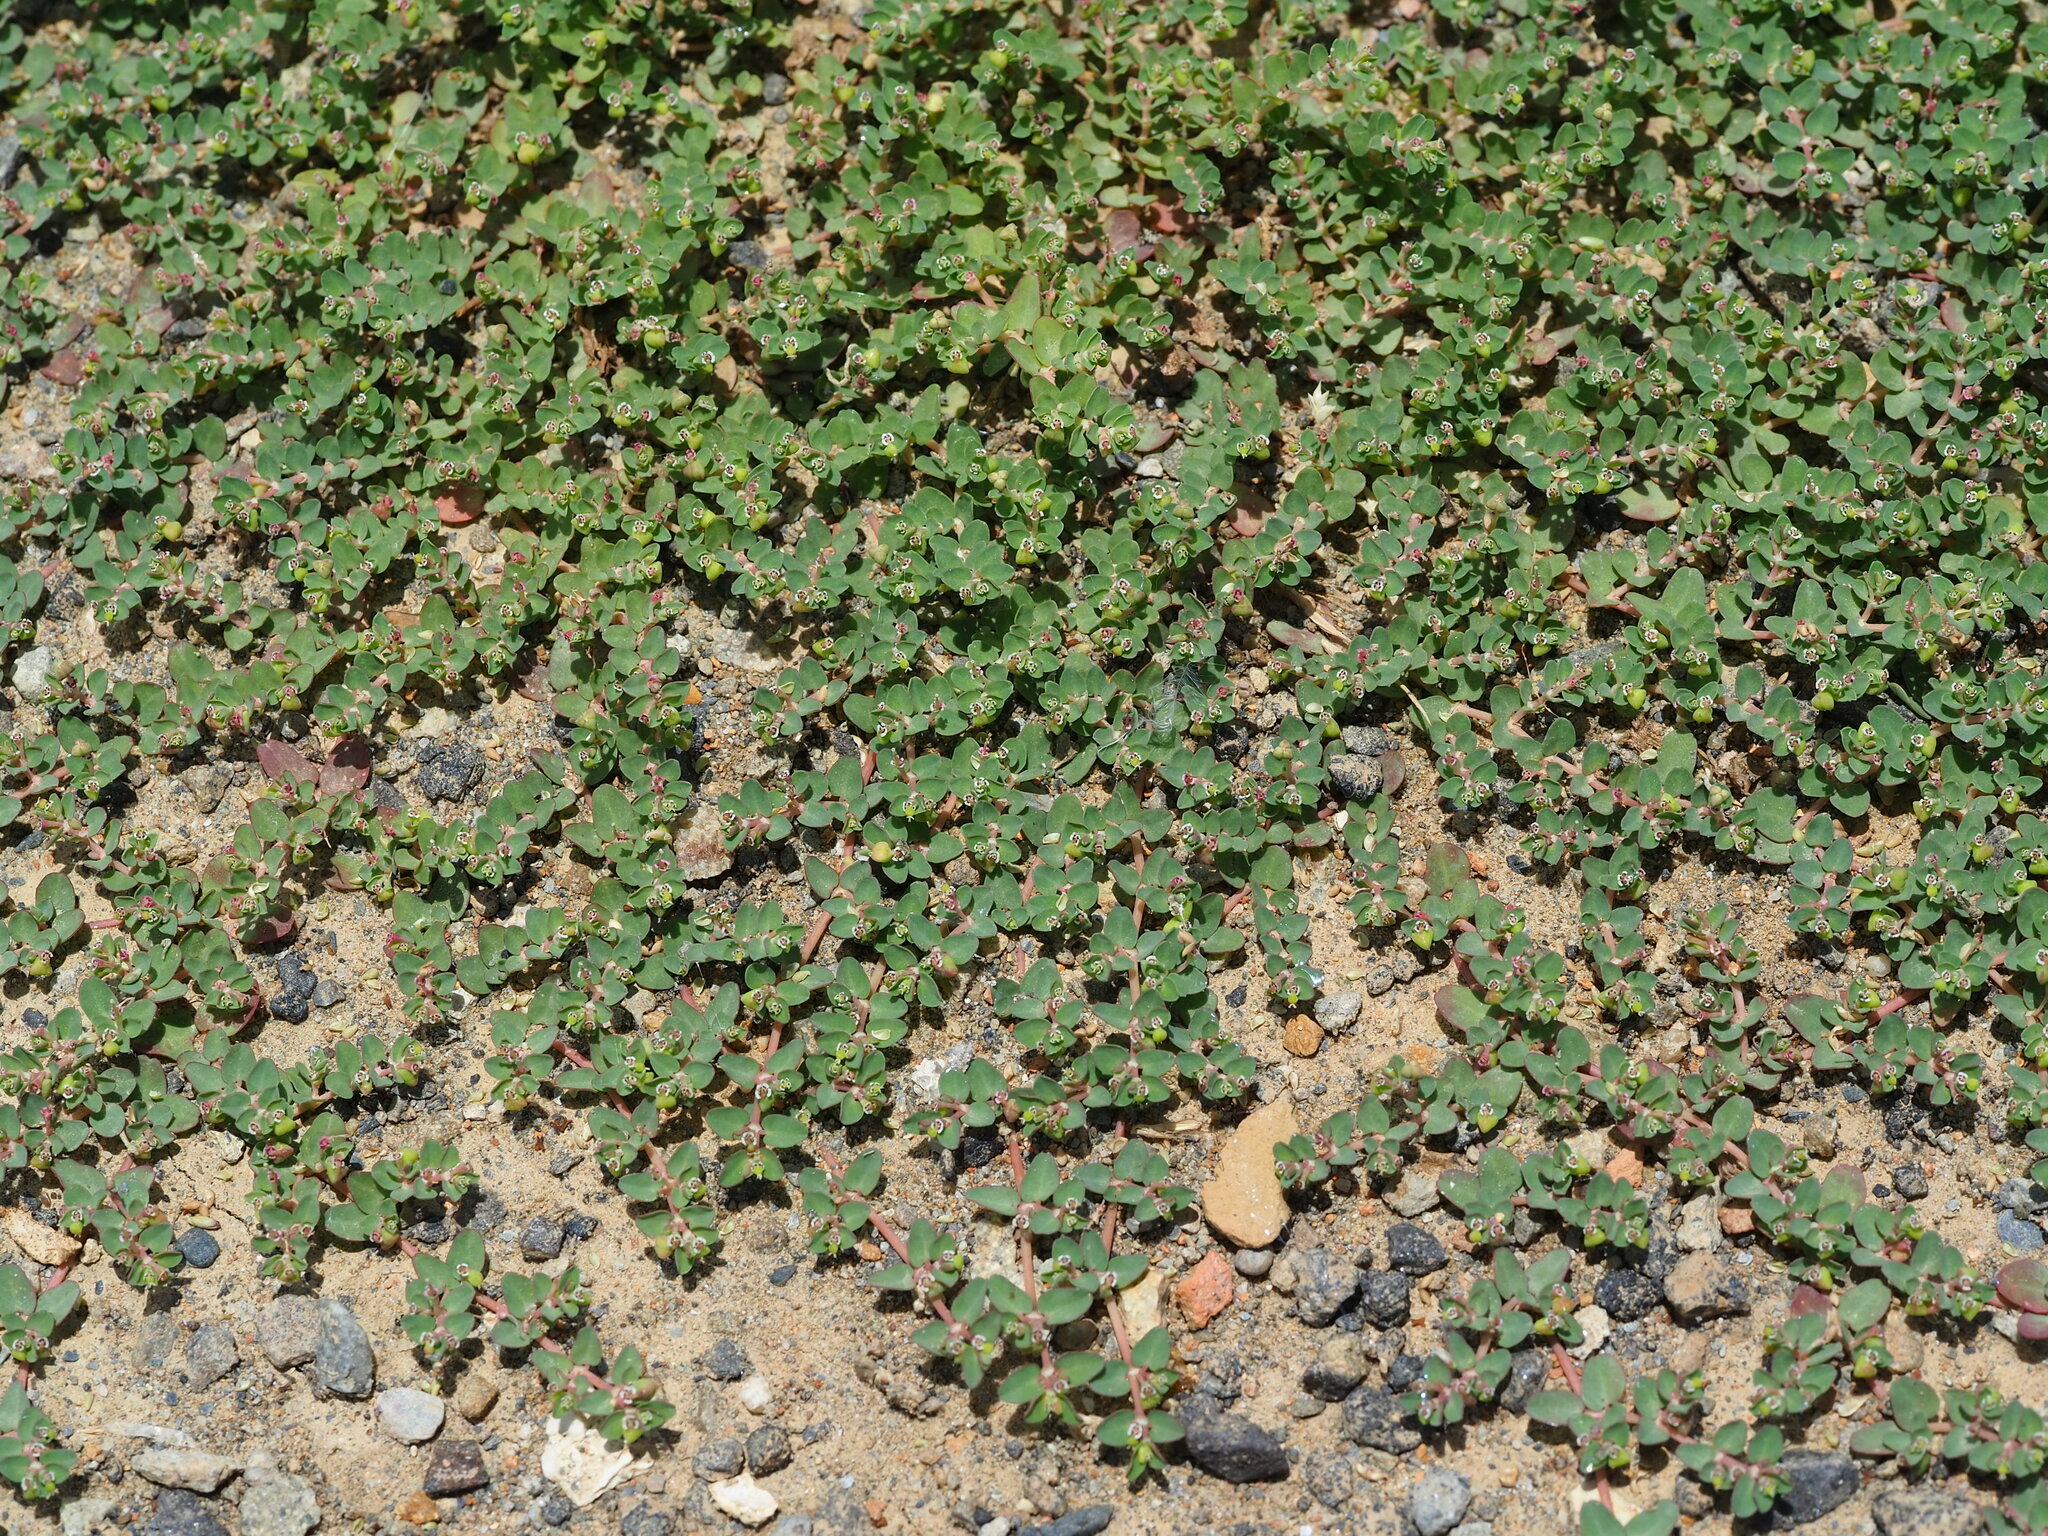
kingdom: Plantae
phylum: Tracheophyta
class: Magnoliopsida
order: Malpighiales
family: Euphorbiaceae
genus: Euphorbia
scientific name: Euphorbia serpens
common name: Matted sandmat
